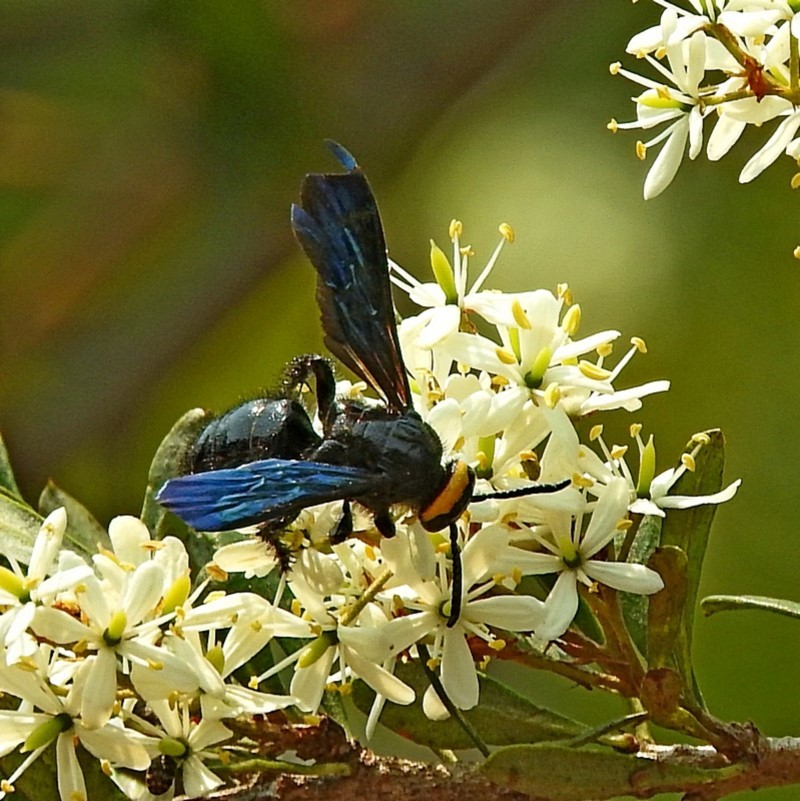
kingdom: Animalia
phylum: Arthropoda
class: Insecta
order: Hymenoptera
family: Scoliidae
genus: Scolia
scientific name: Scolia verticalis
